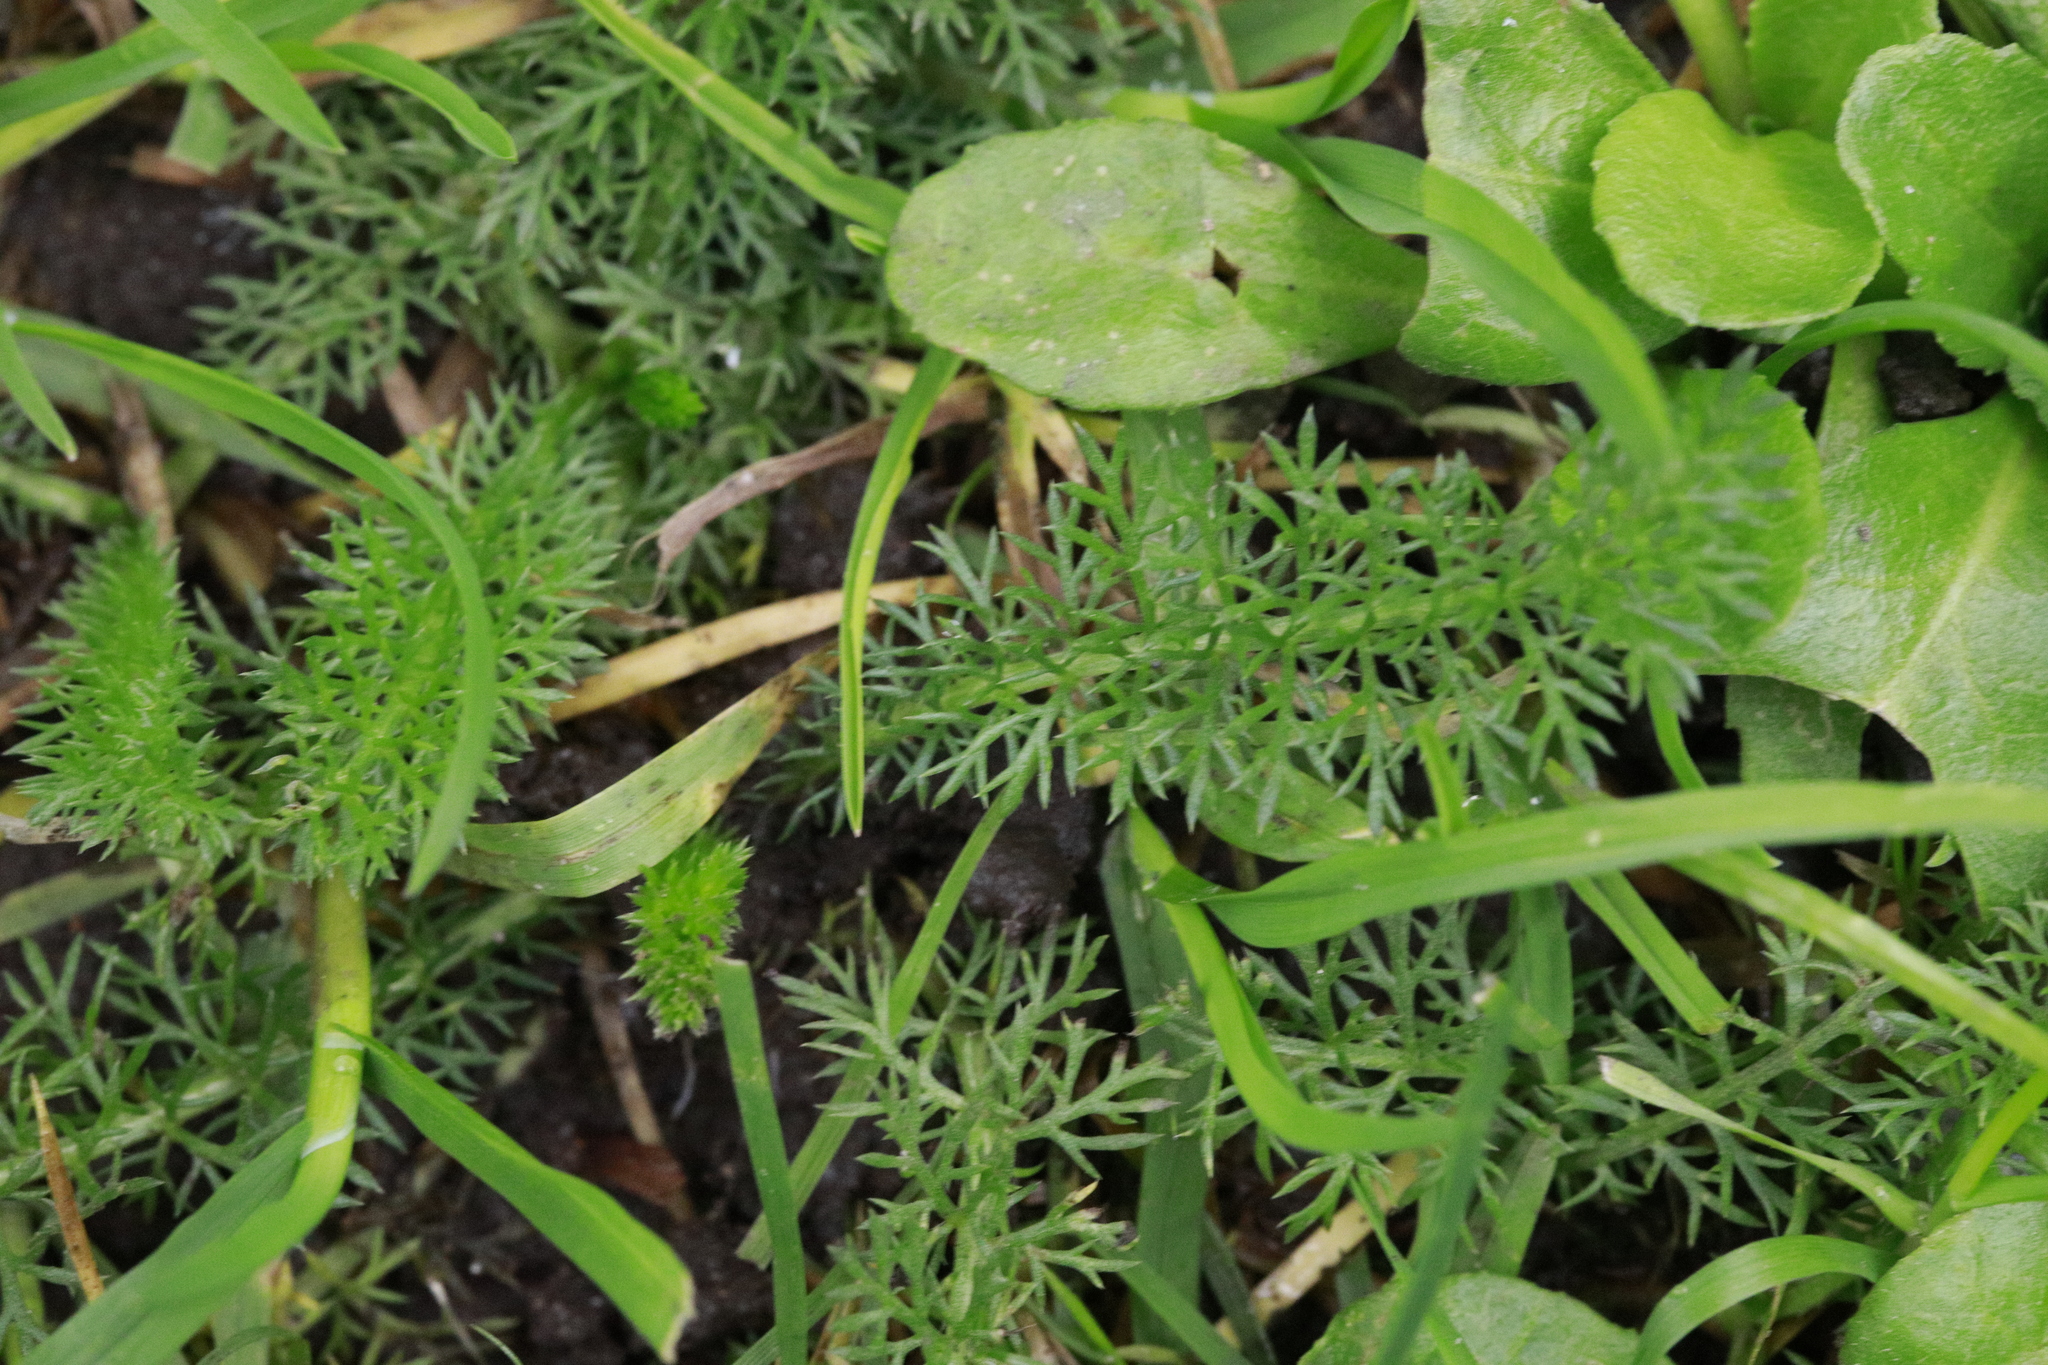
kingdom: Plantae
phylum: Tracheophyta
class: Magnoliopsida
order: Asterales
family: Asteraceae
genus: Achillea
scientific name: Achillea millefolium
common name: Yarrow
